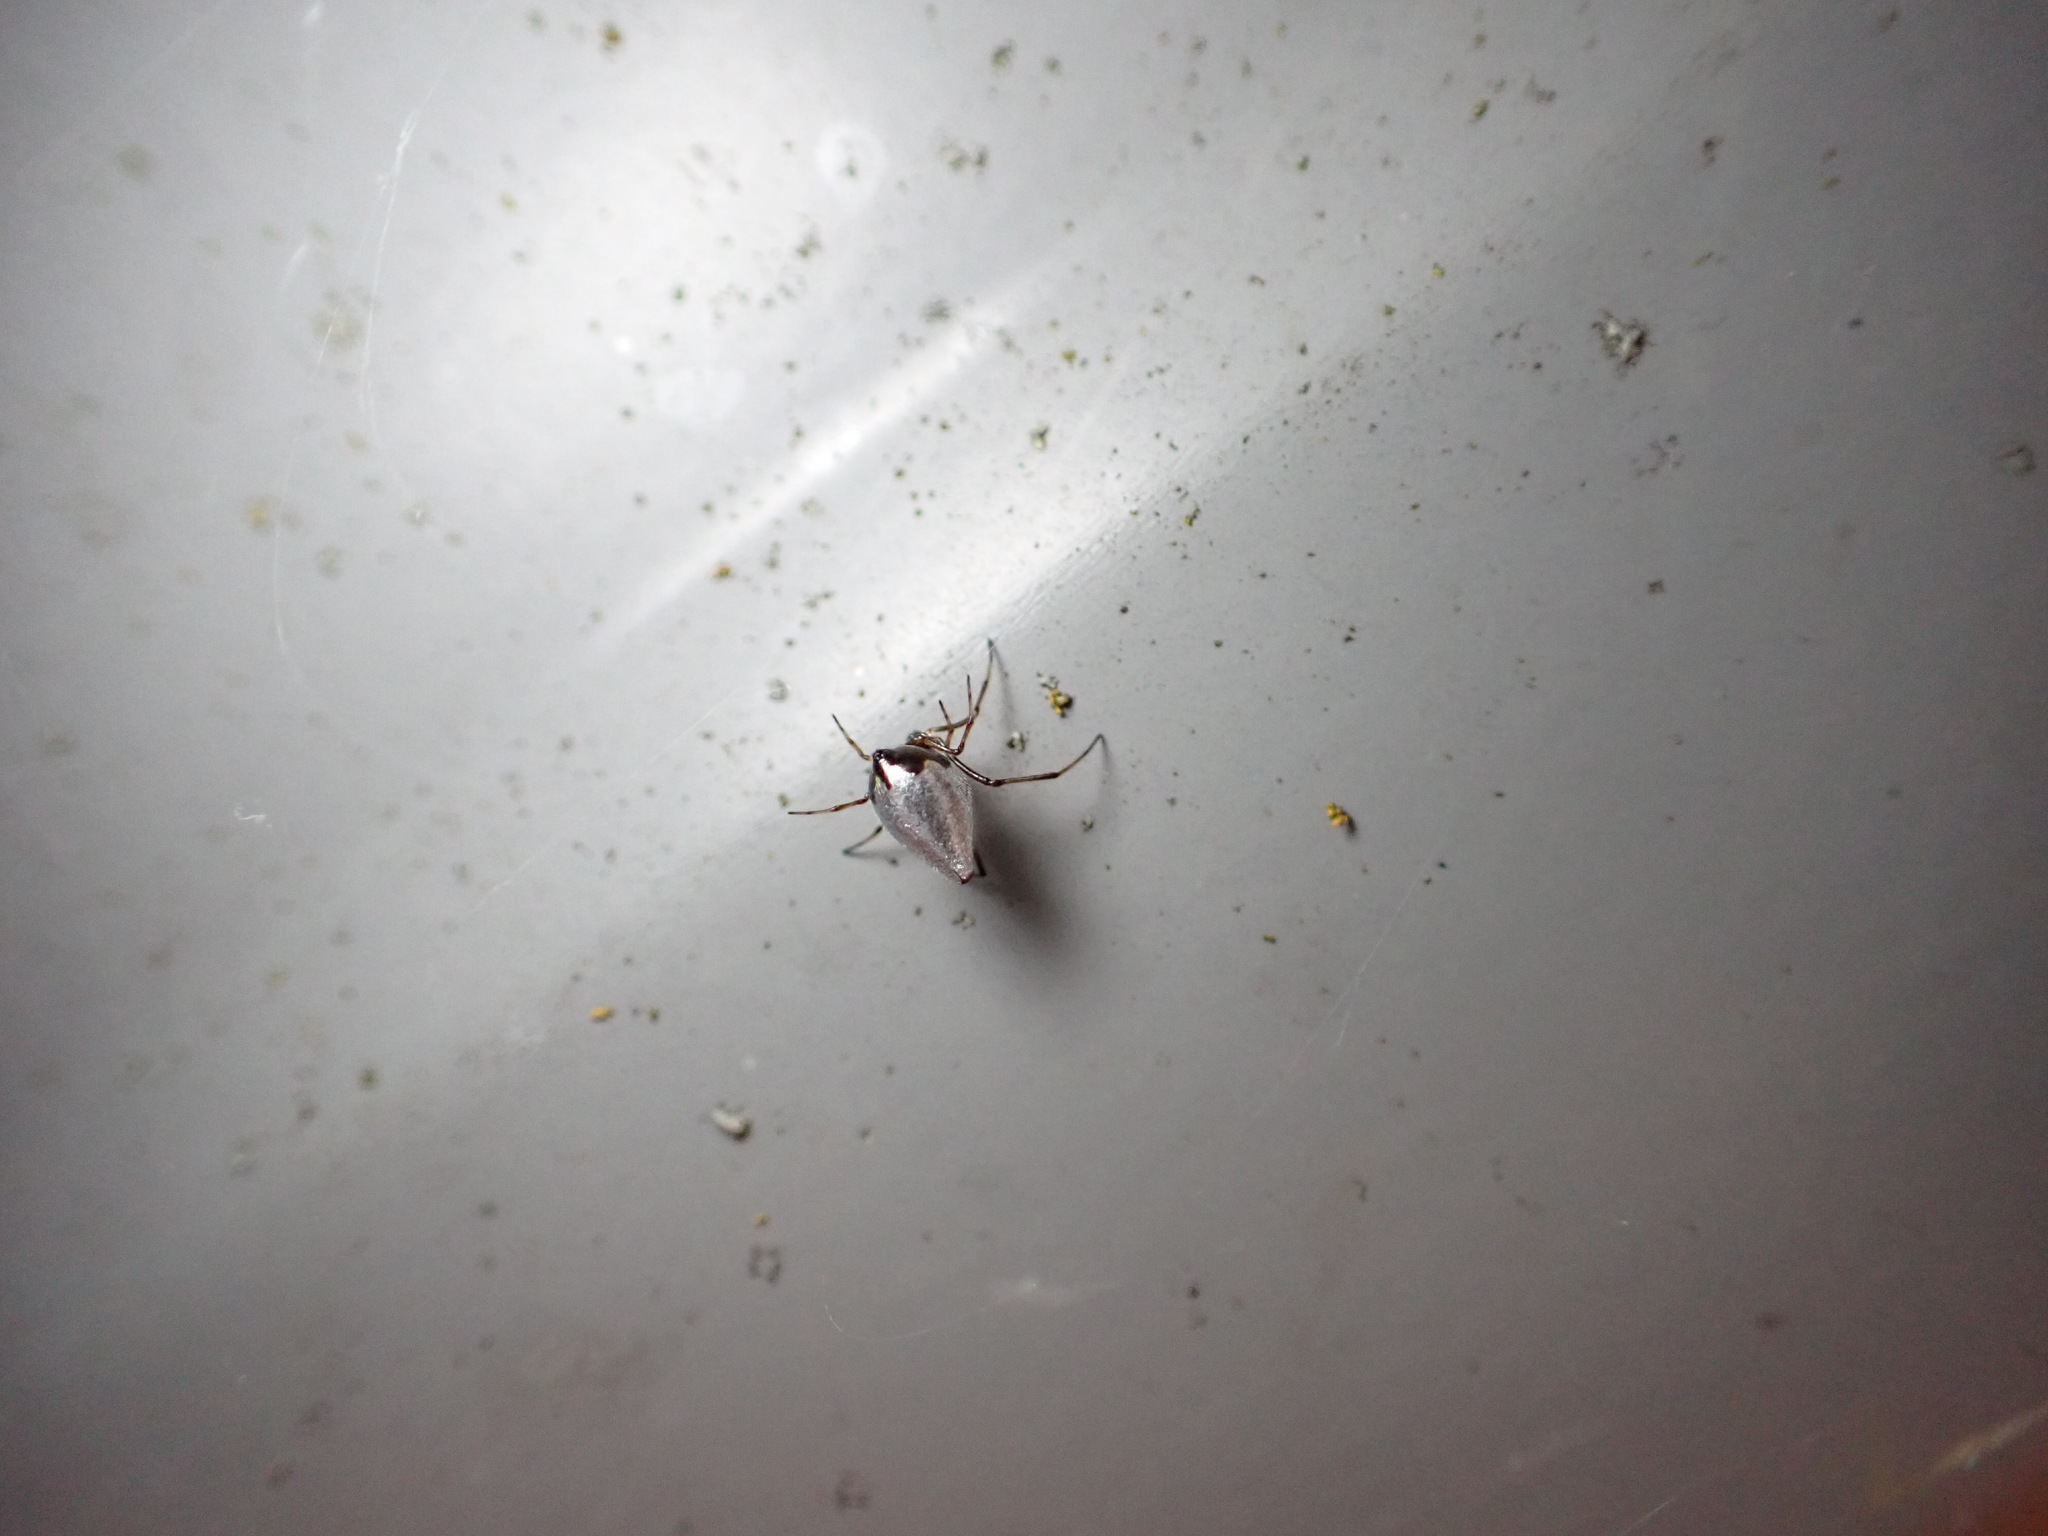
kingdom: Animalia
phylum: Arthropoda
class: Arachnida
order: Araneae
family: Theridiidae
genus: Argyrodes
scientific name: Argyrodes antipodianus
